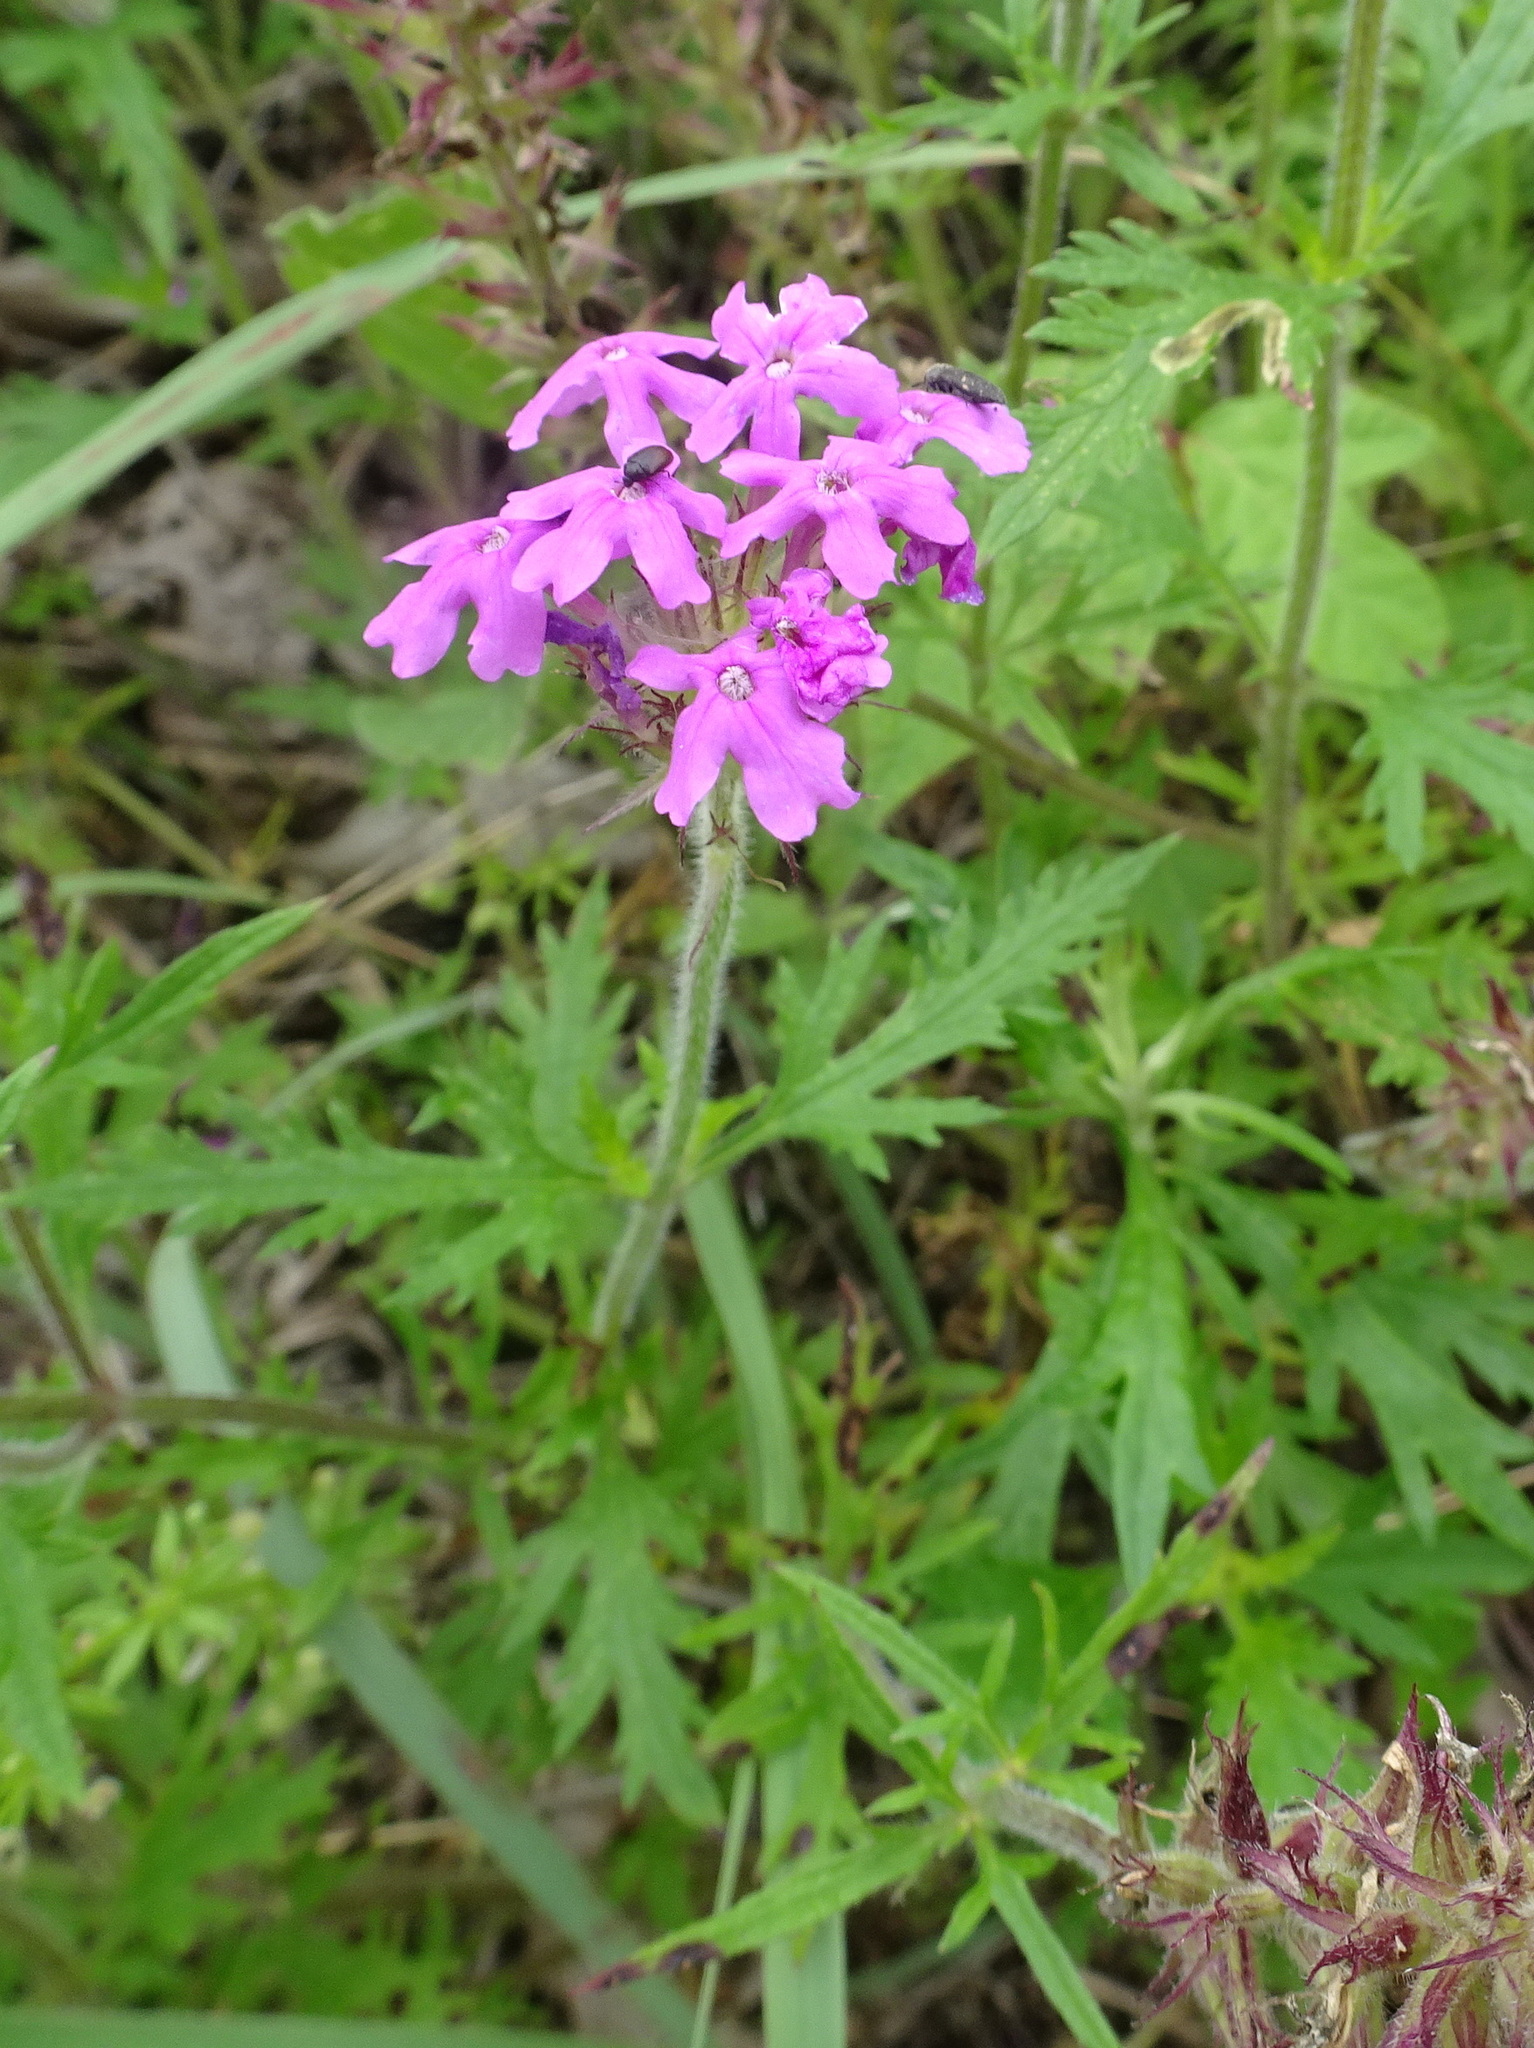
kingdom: Plantae
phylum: Tracheophyta
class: Magnoliopsida
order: Lamiales
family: Verbenaceae
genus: Verbena
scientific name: Verbena canadensis
